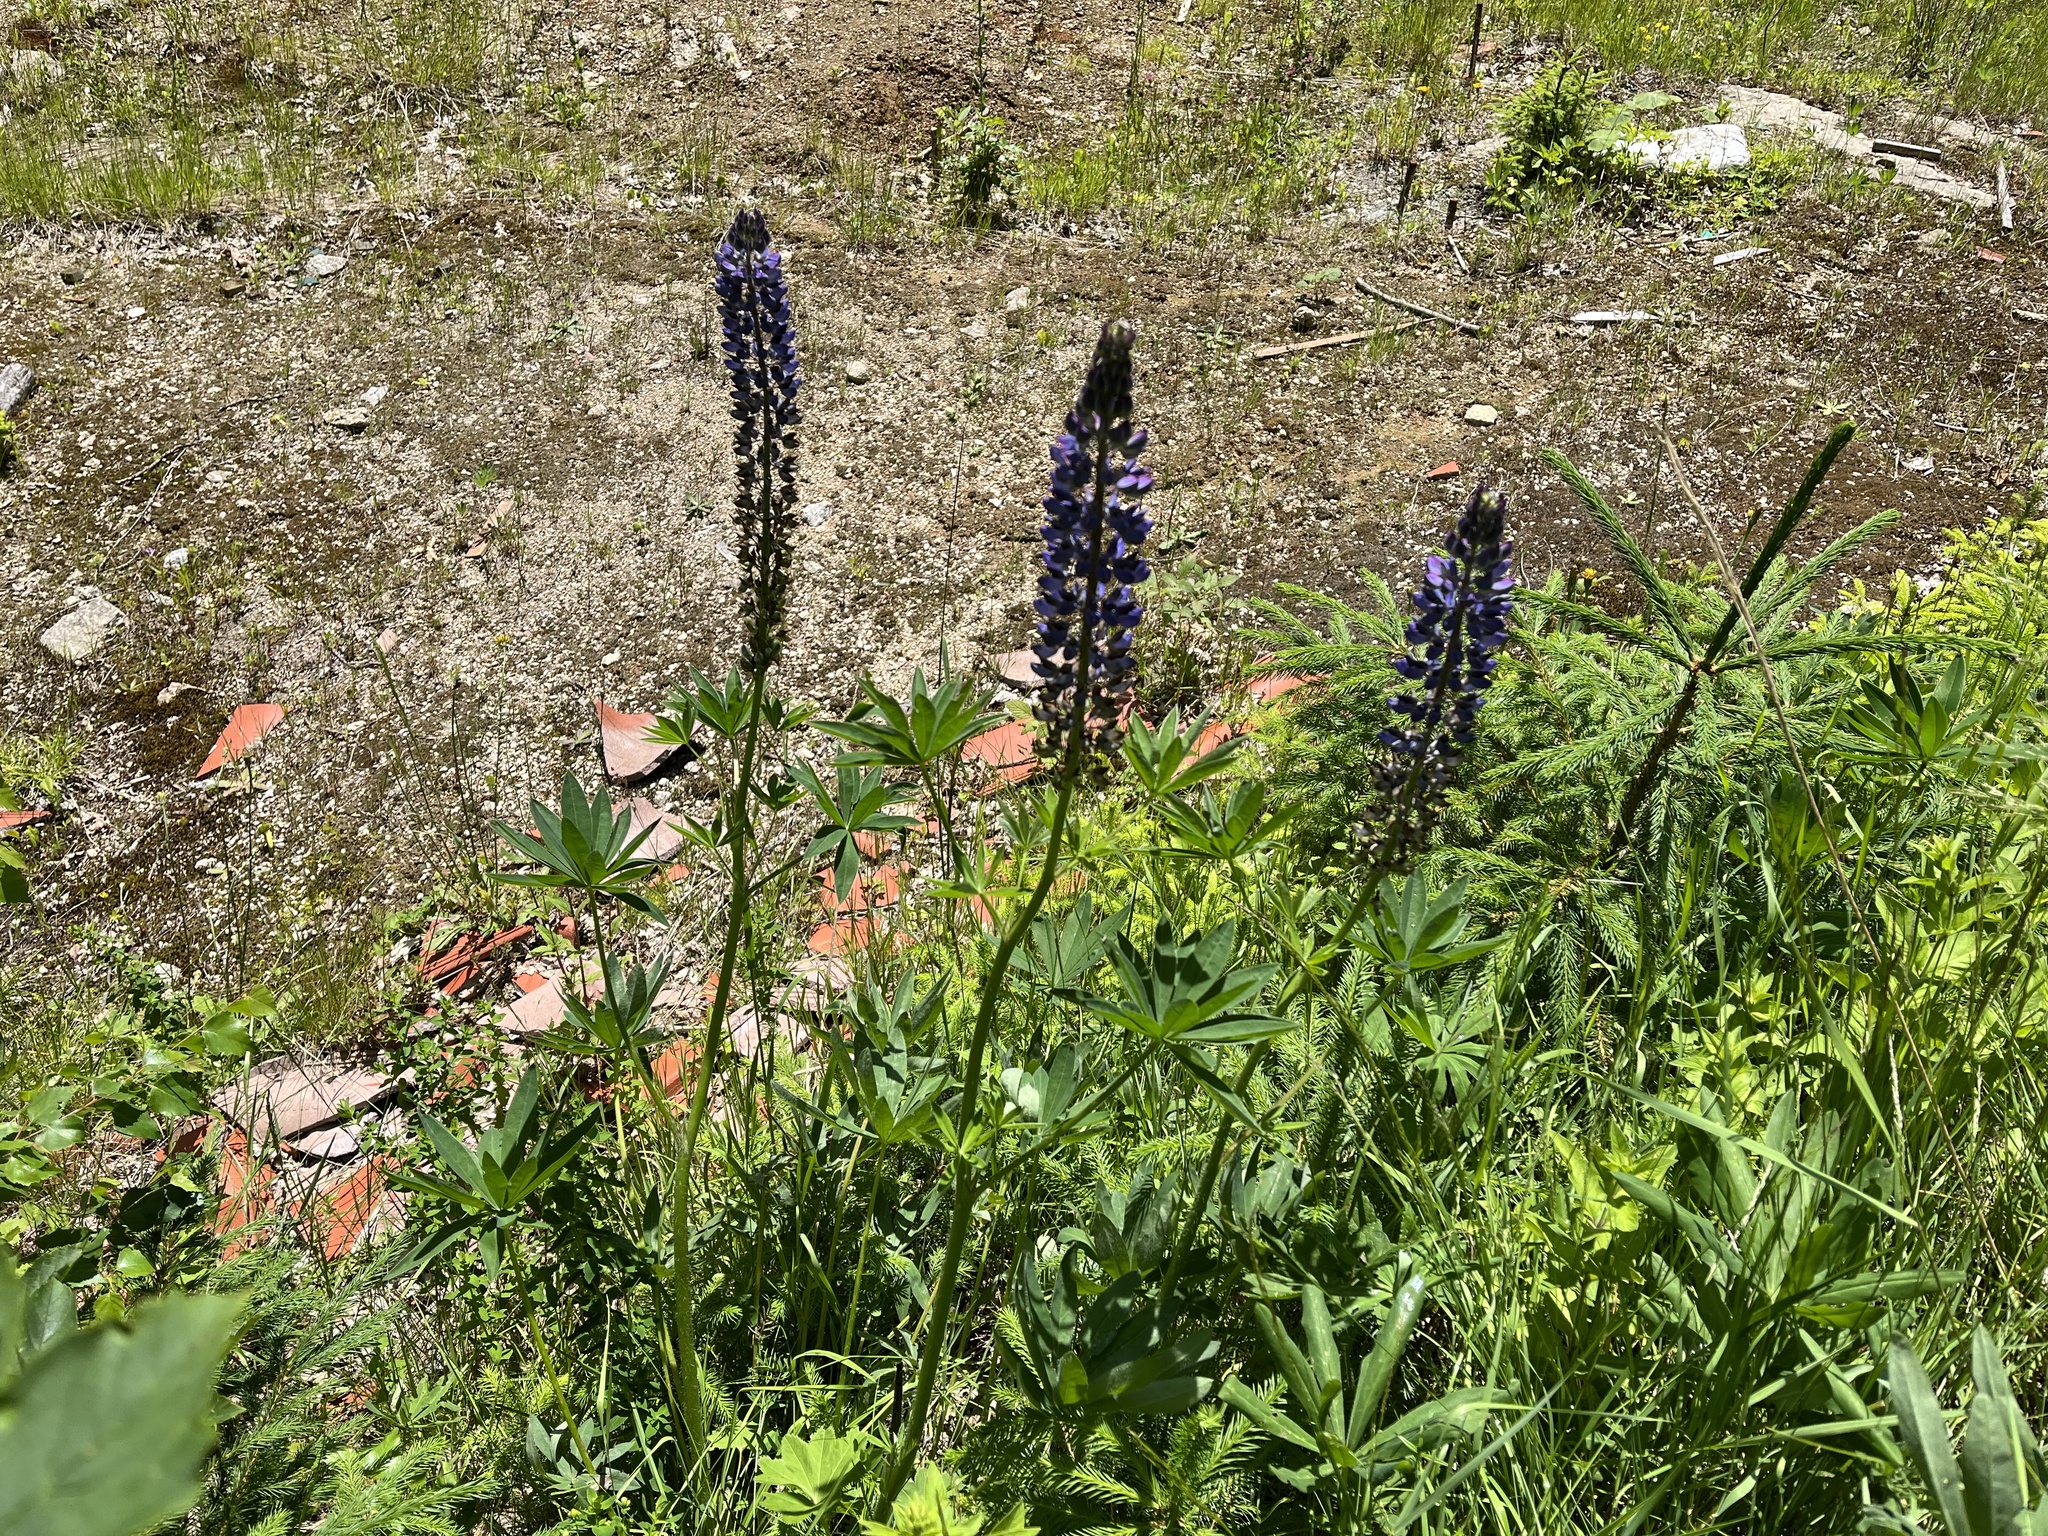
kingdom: Plantae
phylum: Tracheophyta
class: Magnoliopsida
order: Fabales
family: Fabaceae
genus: Lupinus
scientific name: Lupinus polyphyllus
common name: Garden lupin
